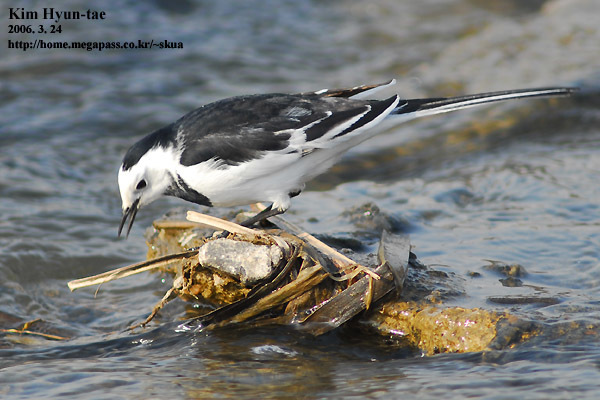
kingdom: Animalia
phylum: Chordata
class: Aves
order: Passeriformes
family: Motacillidae
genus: Motacilla
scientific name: Motacilla alba
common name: White wagtail
